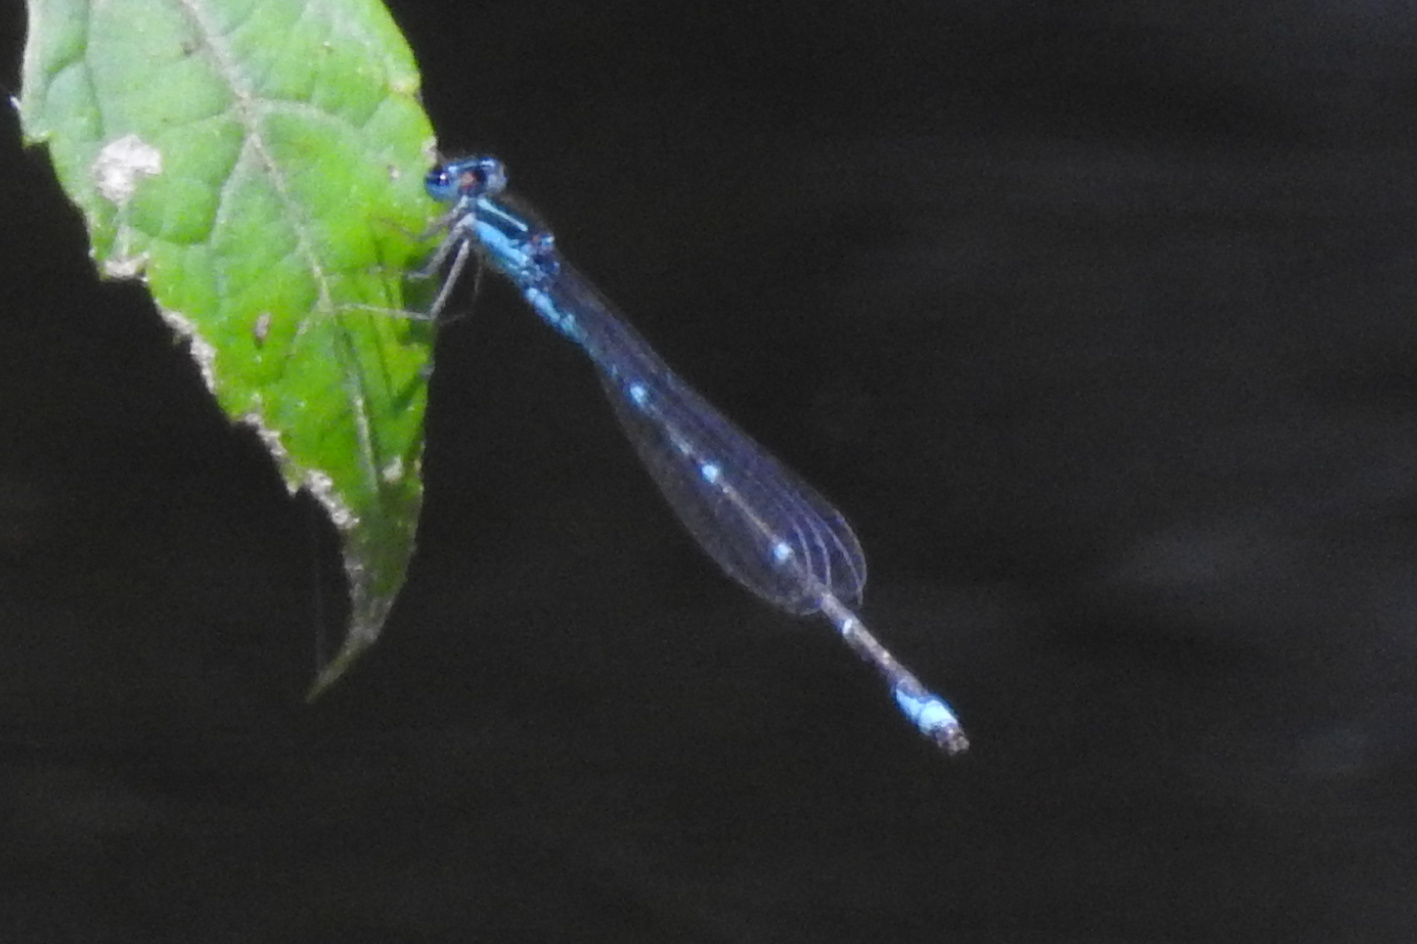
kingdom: Animalia
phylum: Arthropoda
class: Insecta
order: Odonata
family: Coenagrionidae
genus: Enallagma
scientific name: Enallagma exsulans
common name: Stream bluet
